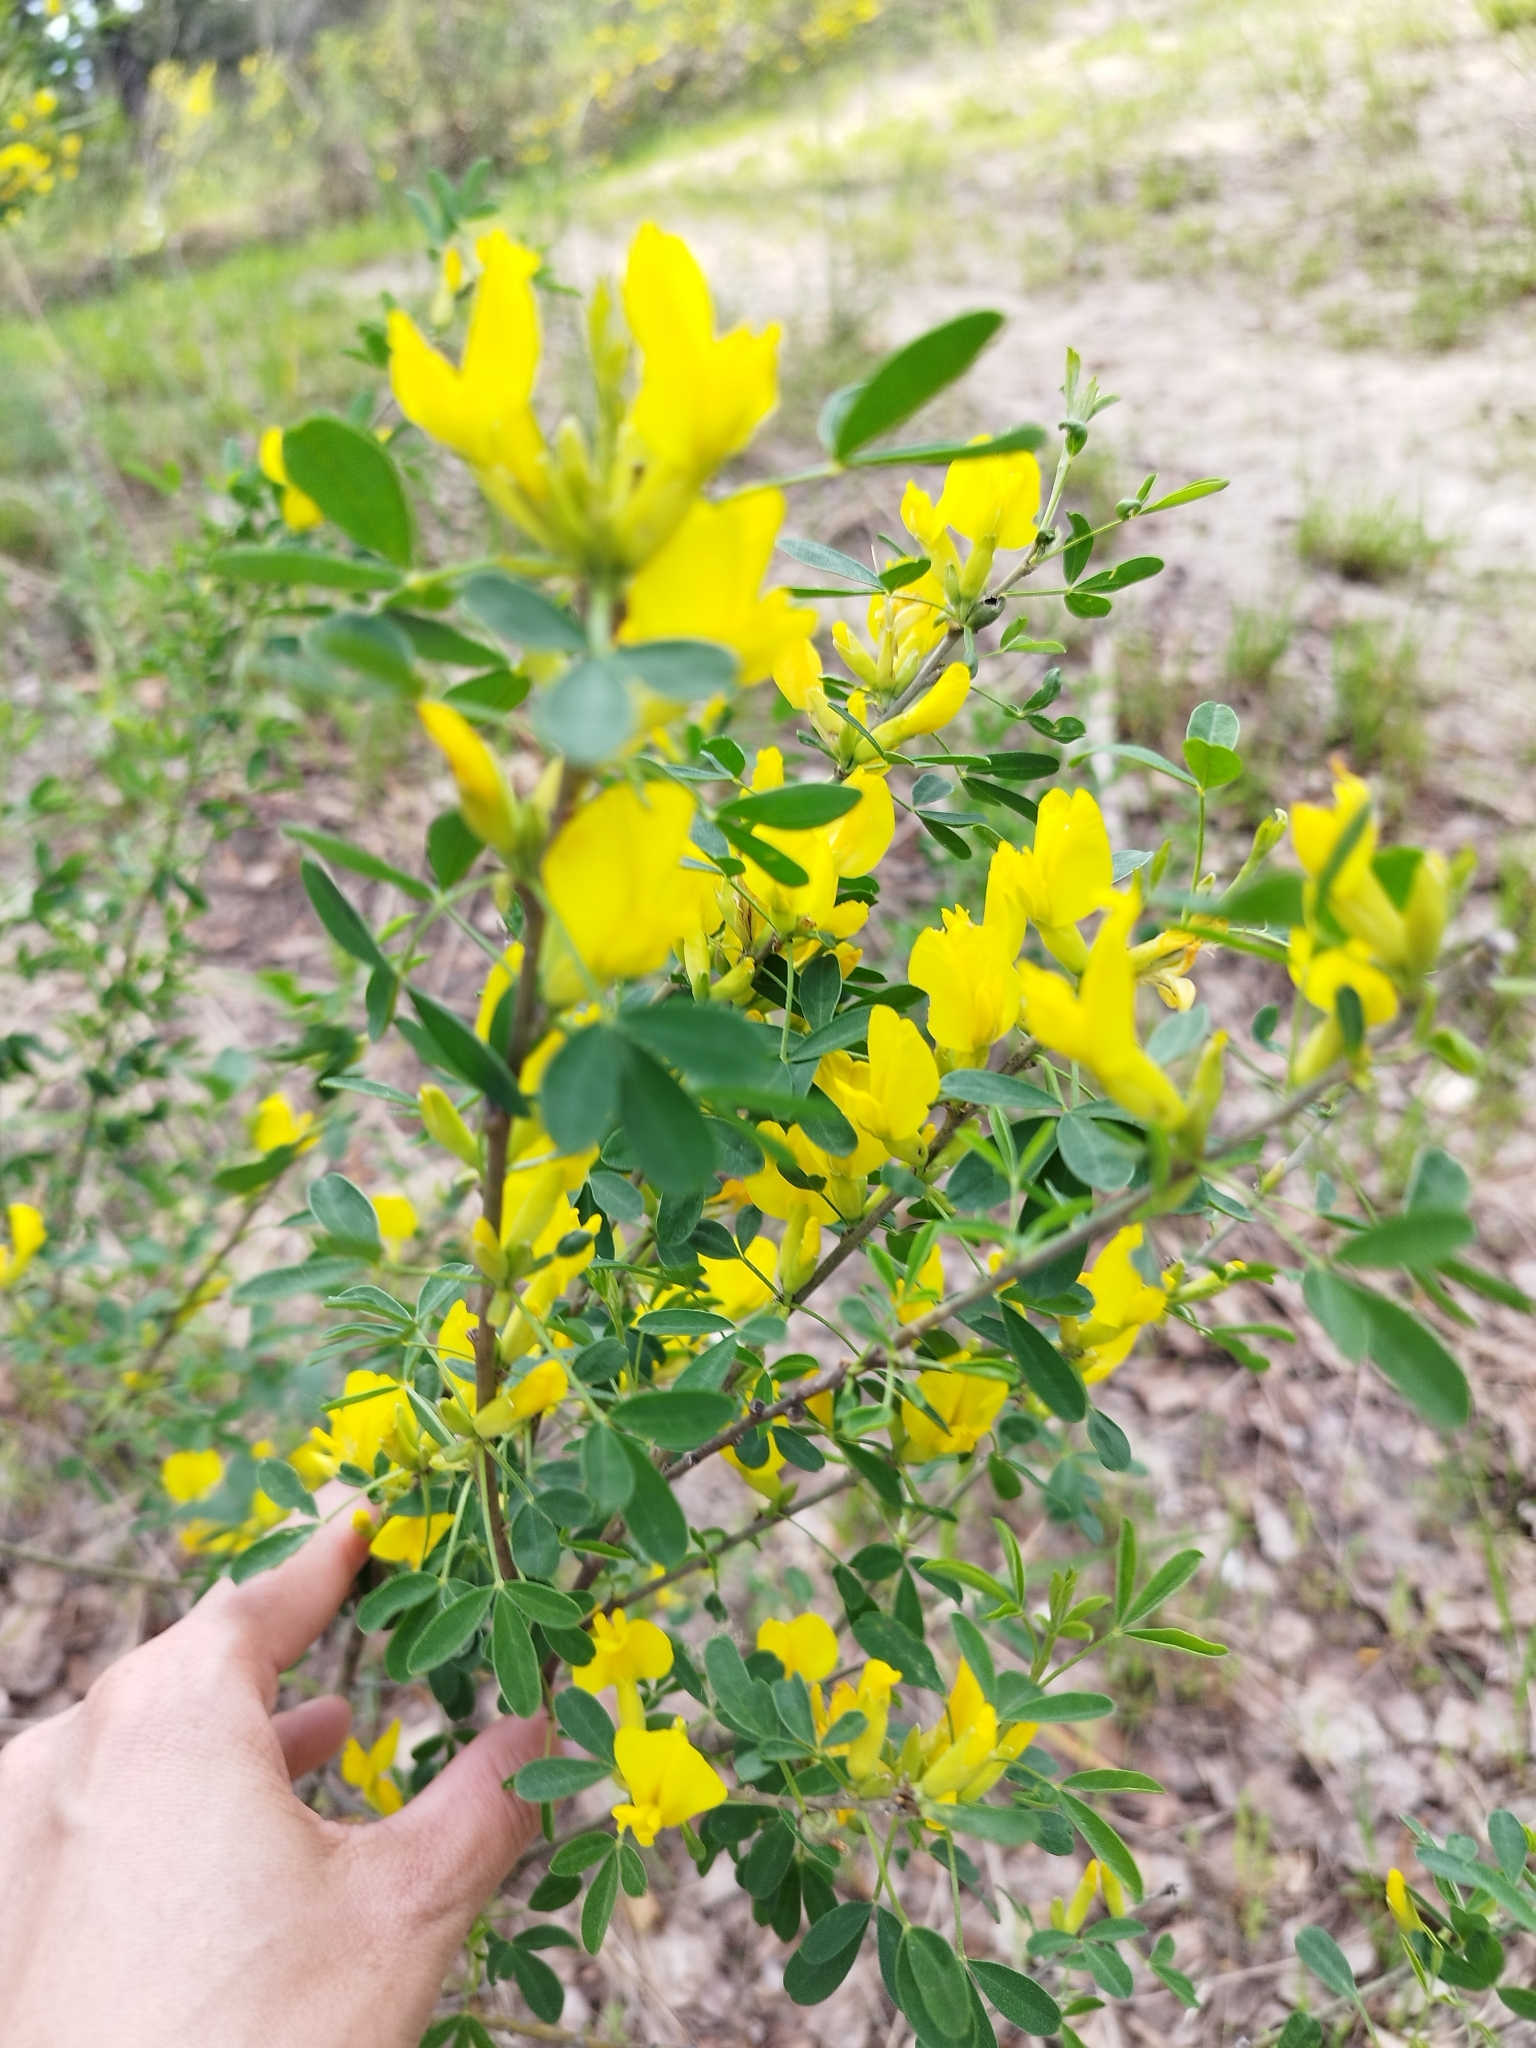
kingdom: Plantae
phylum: Tracheophyta
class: Magnoliopsida
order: Fabales
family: Fabaceae
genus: Chamaecytisus
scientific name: Chamaecytisus ruthenicus
